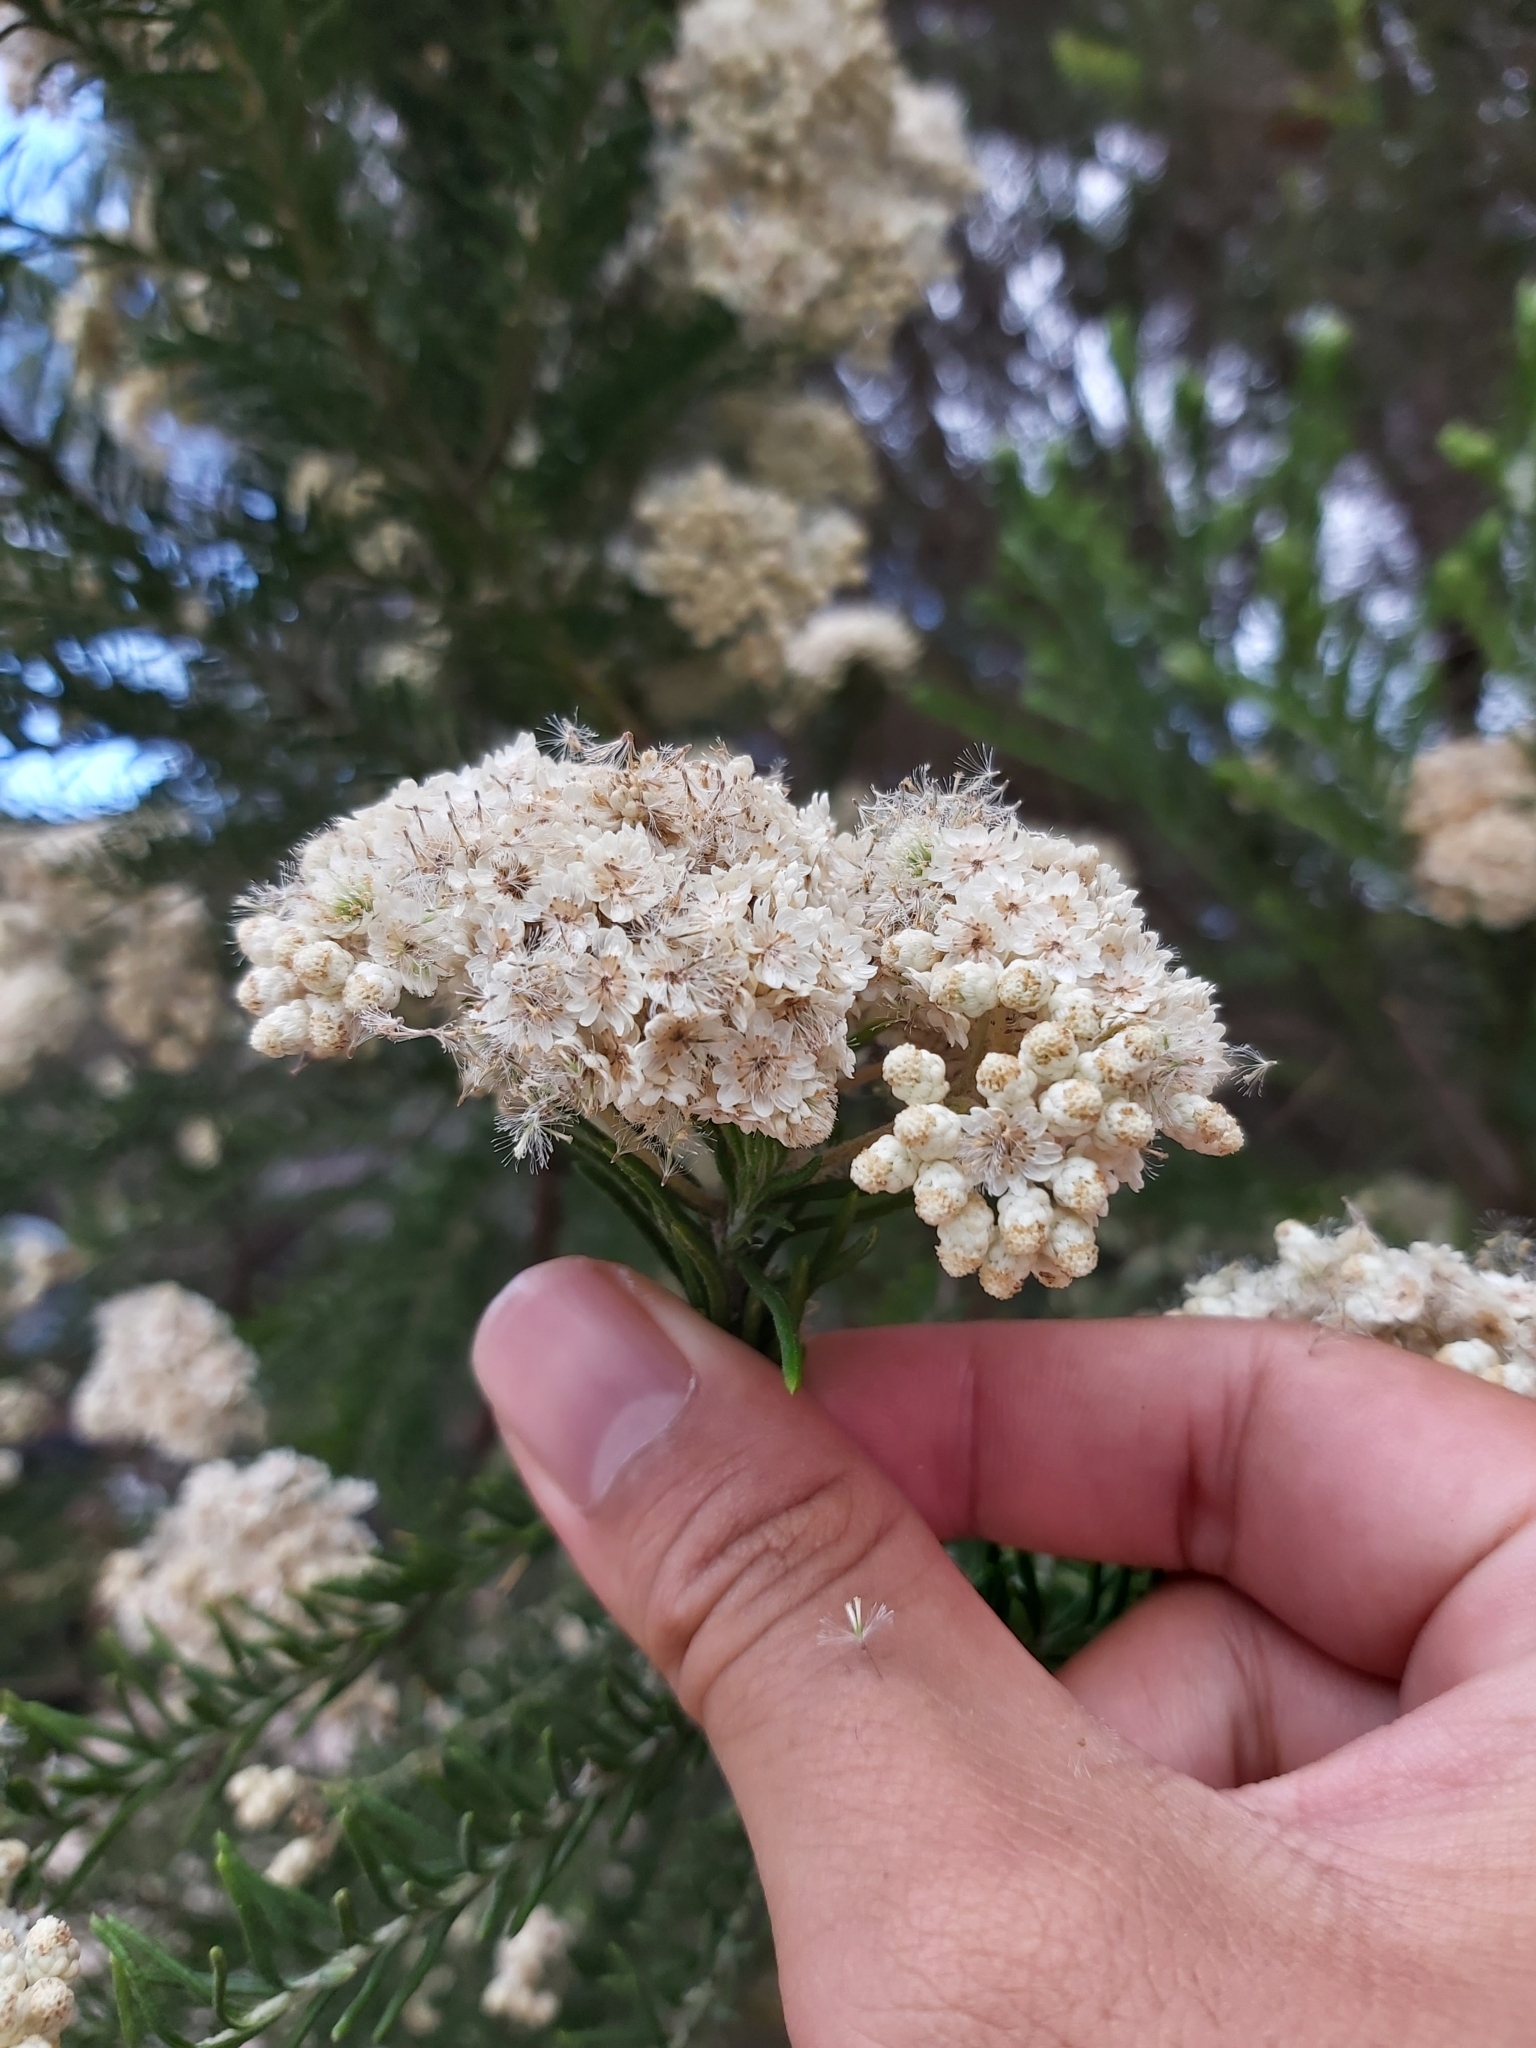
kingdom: Plantae
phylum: Tracheophyta
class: Magnoliopsida
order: Asterales
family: Asteraceae
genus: Ozothamnus
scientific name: Ozothamnus diosmifolius
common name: White-dogwood
